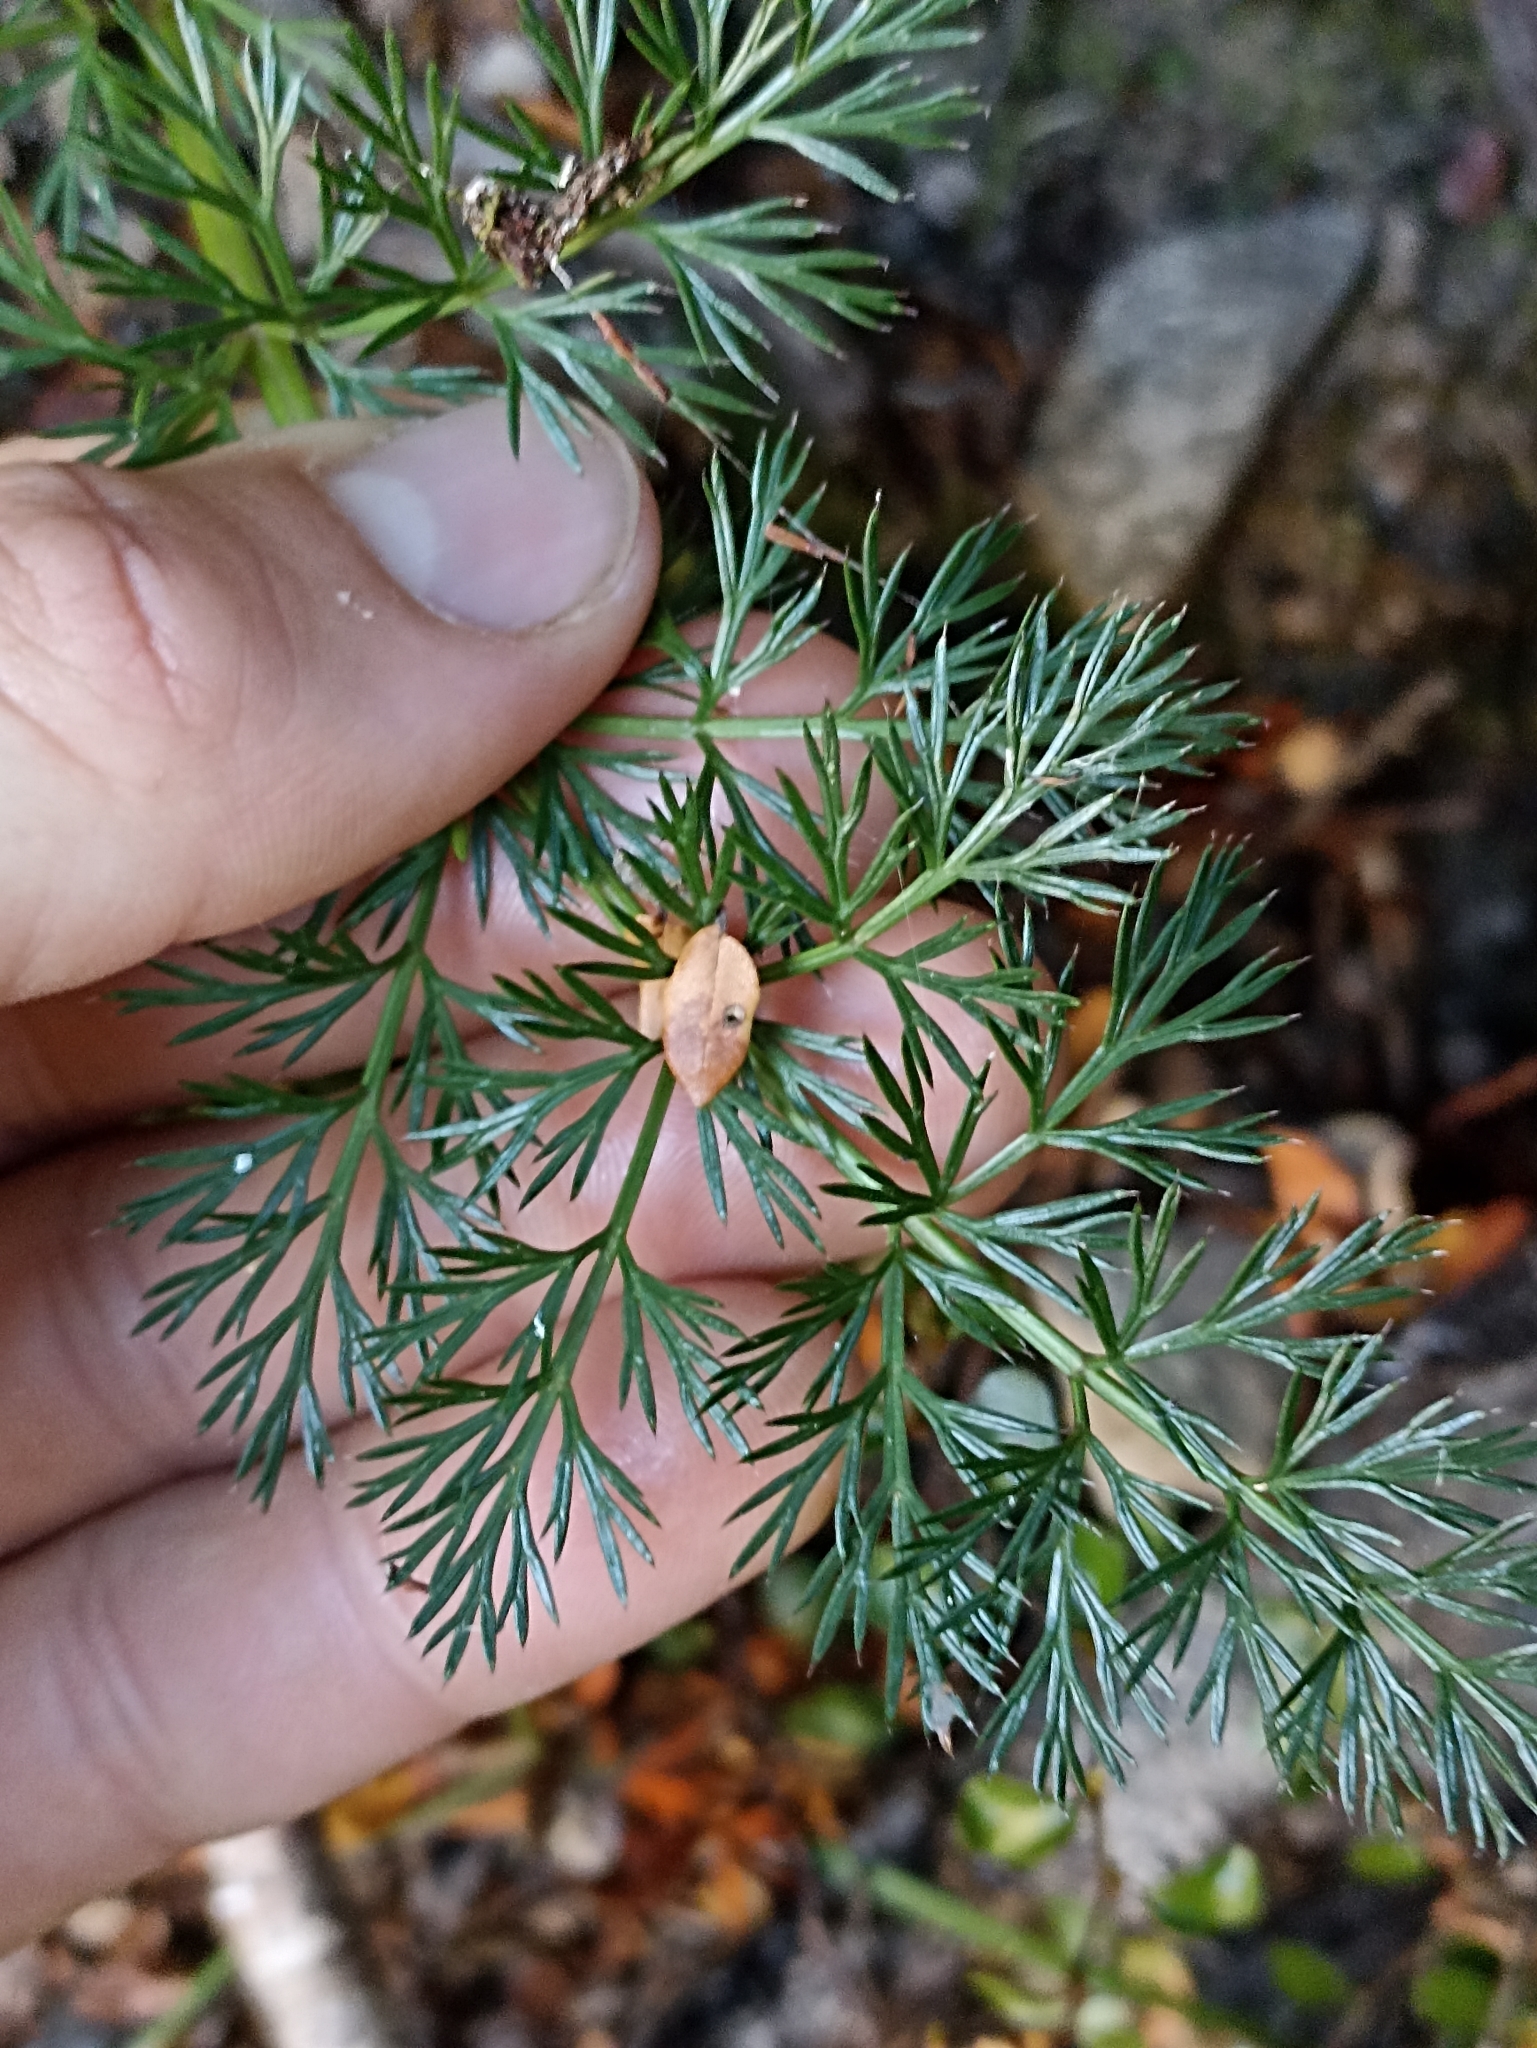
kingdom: Plantae
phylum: Tracheophyta
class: Magnoliopsida
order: Apiales
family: Apiaceae
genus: Anisotome
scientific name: Anisotome haastii
